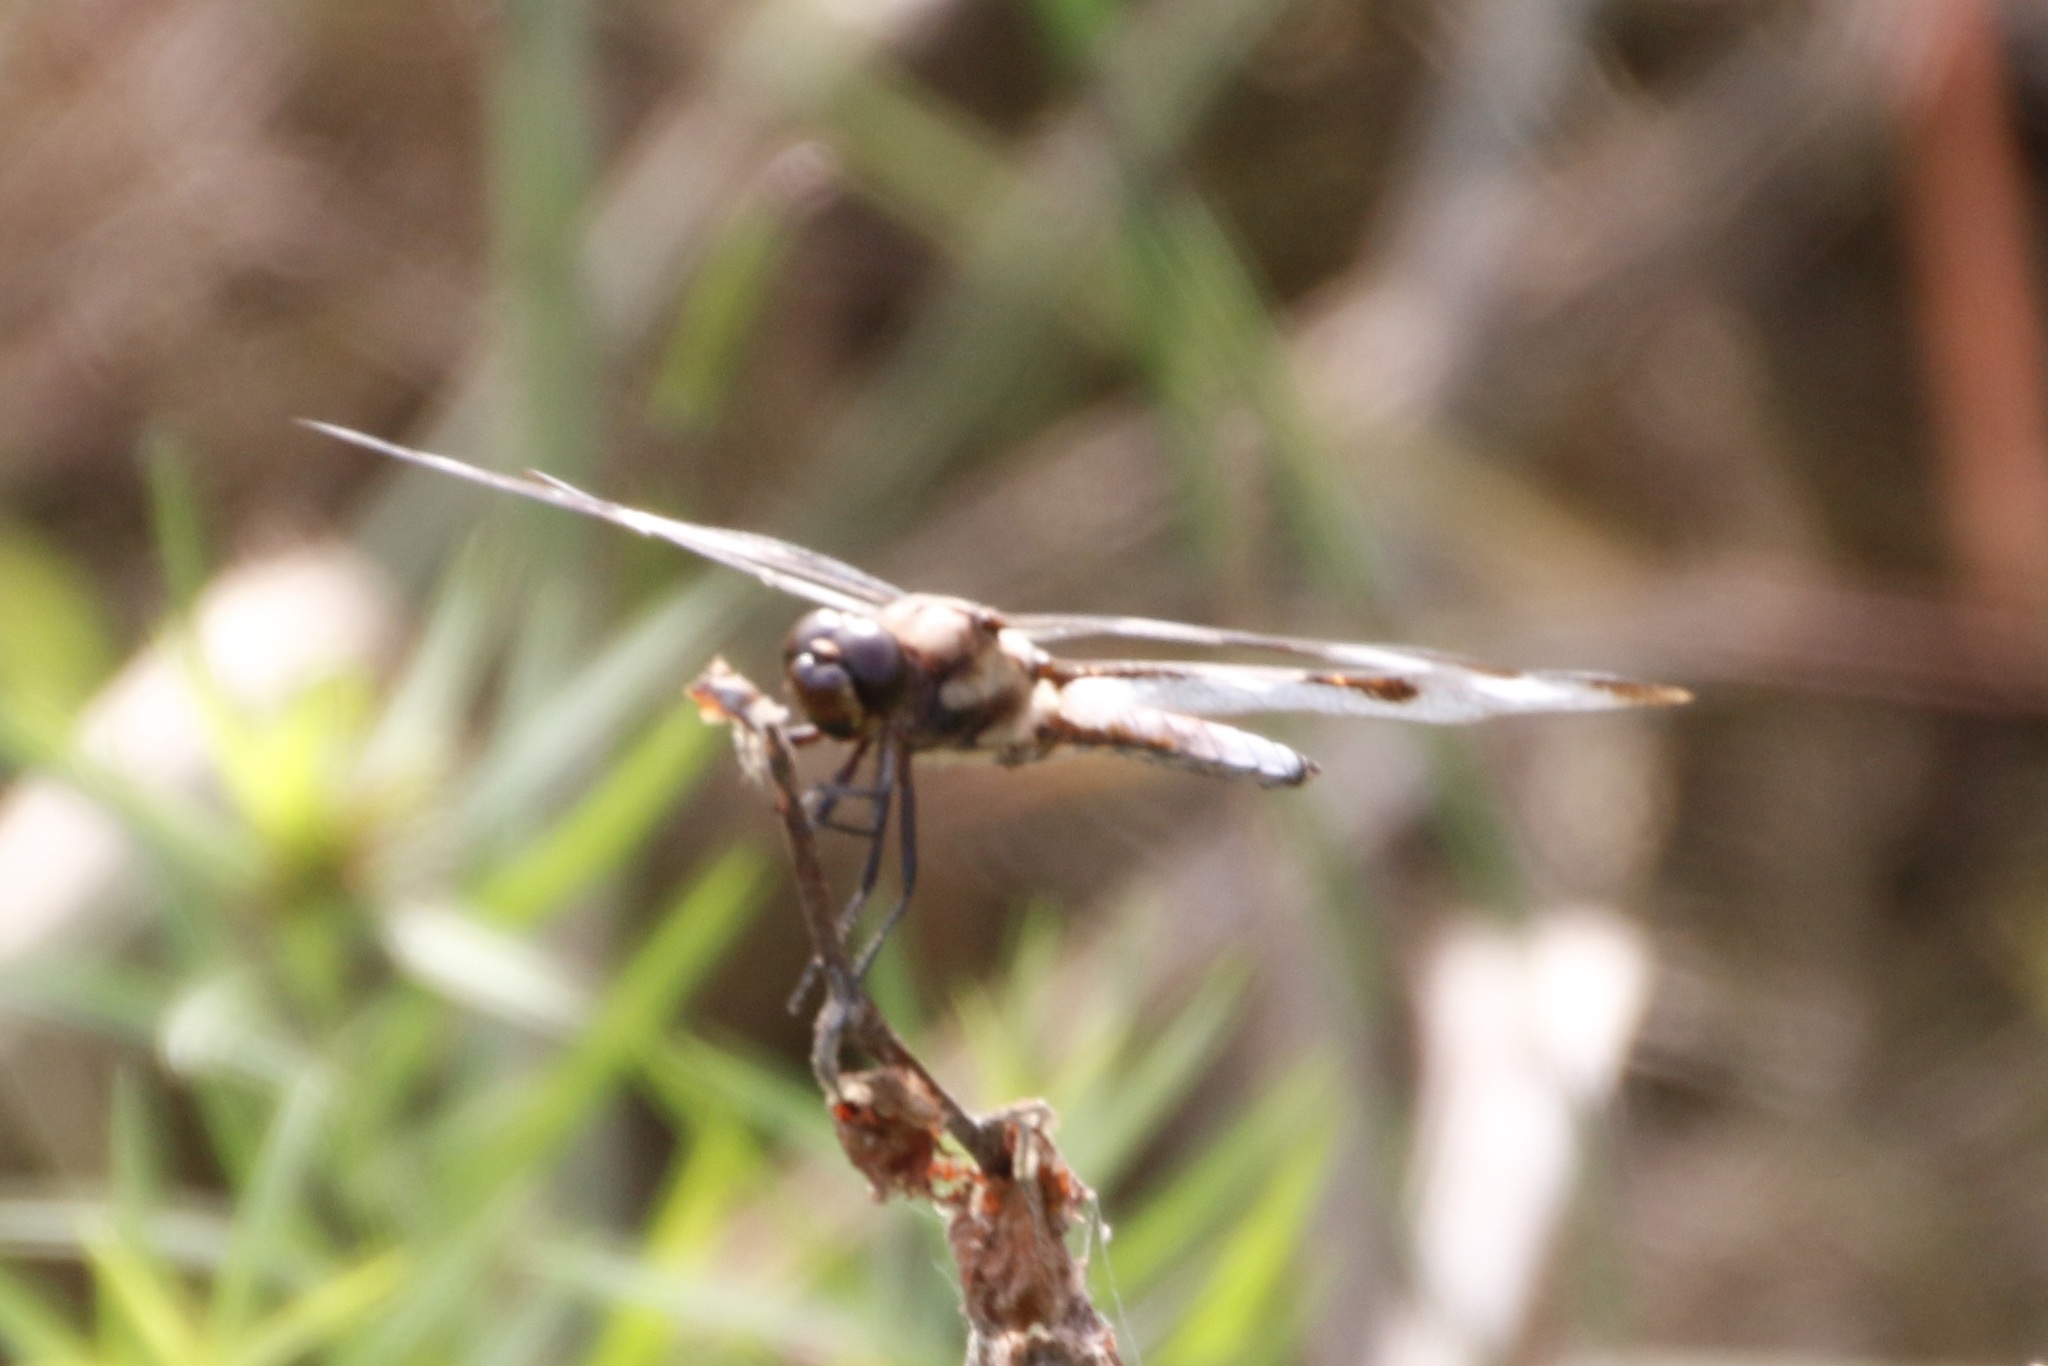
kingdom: Animalia
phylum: Arthropoda
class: Insecta
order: Odonata
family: Libellulidae
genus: Libellula
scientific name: Libellula pulchella
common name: Twelve-spotted skimmer
